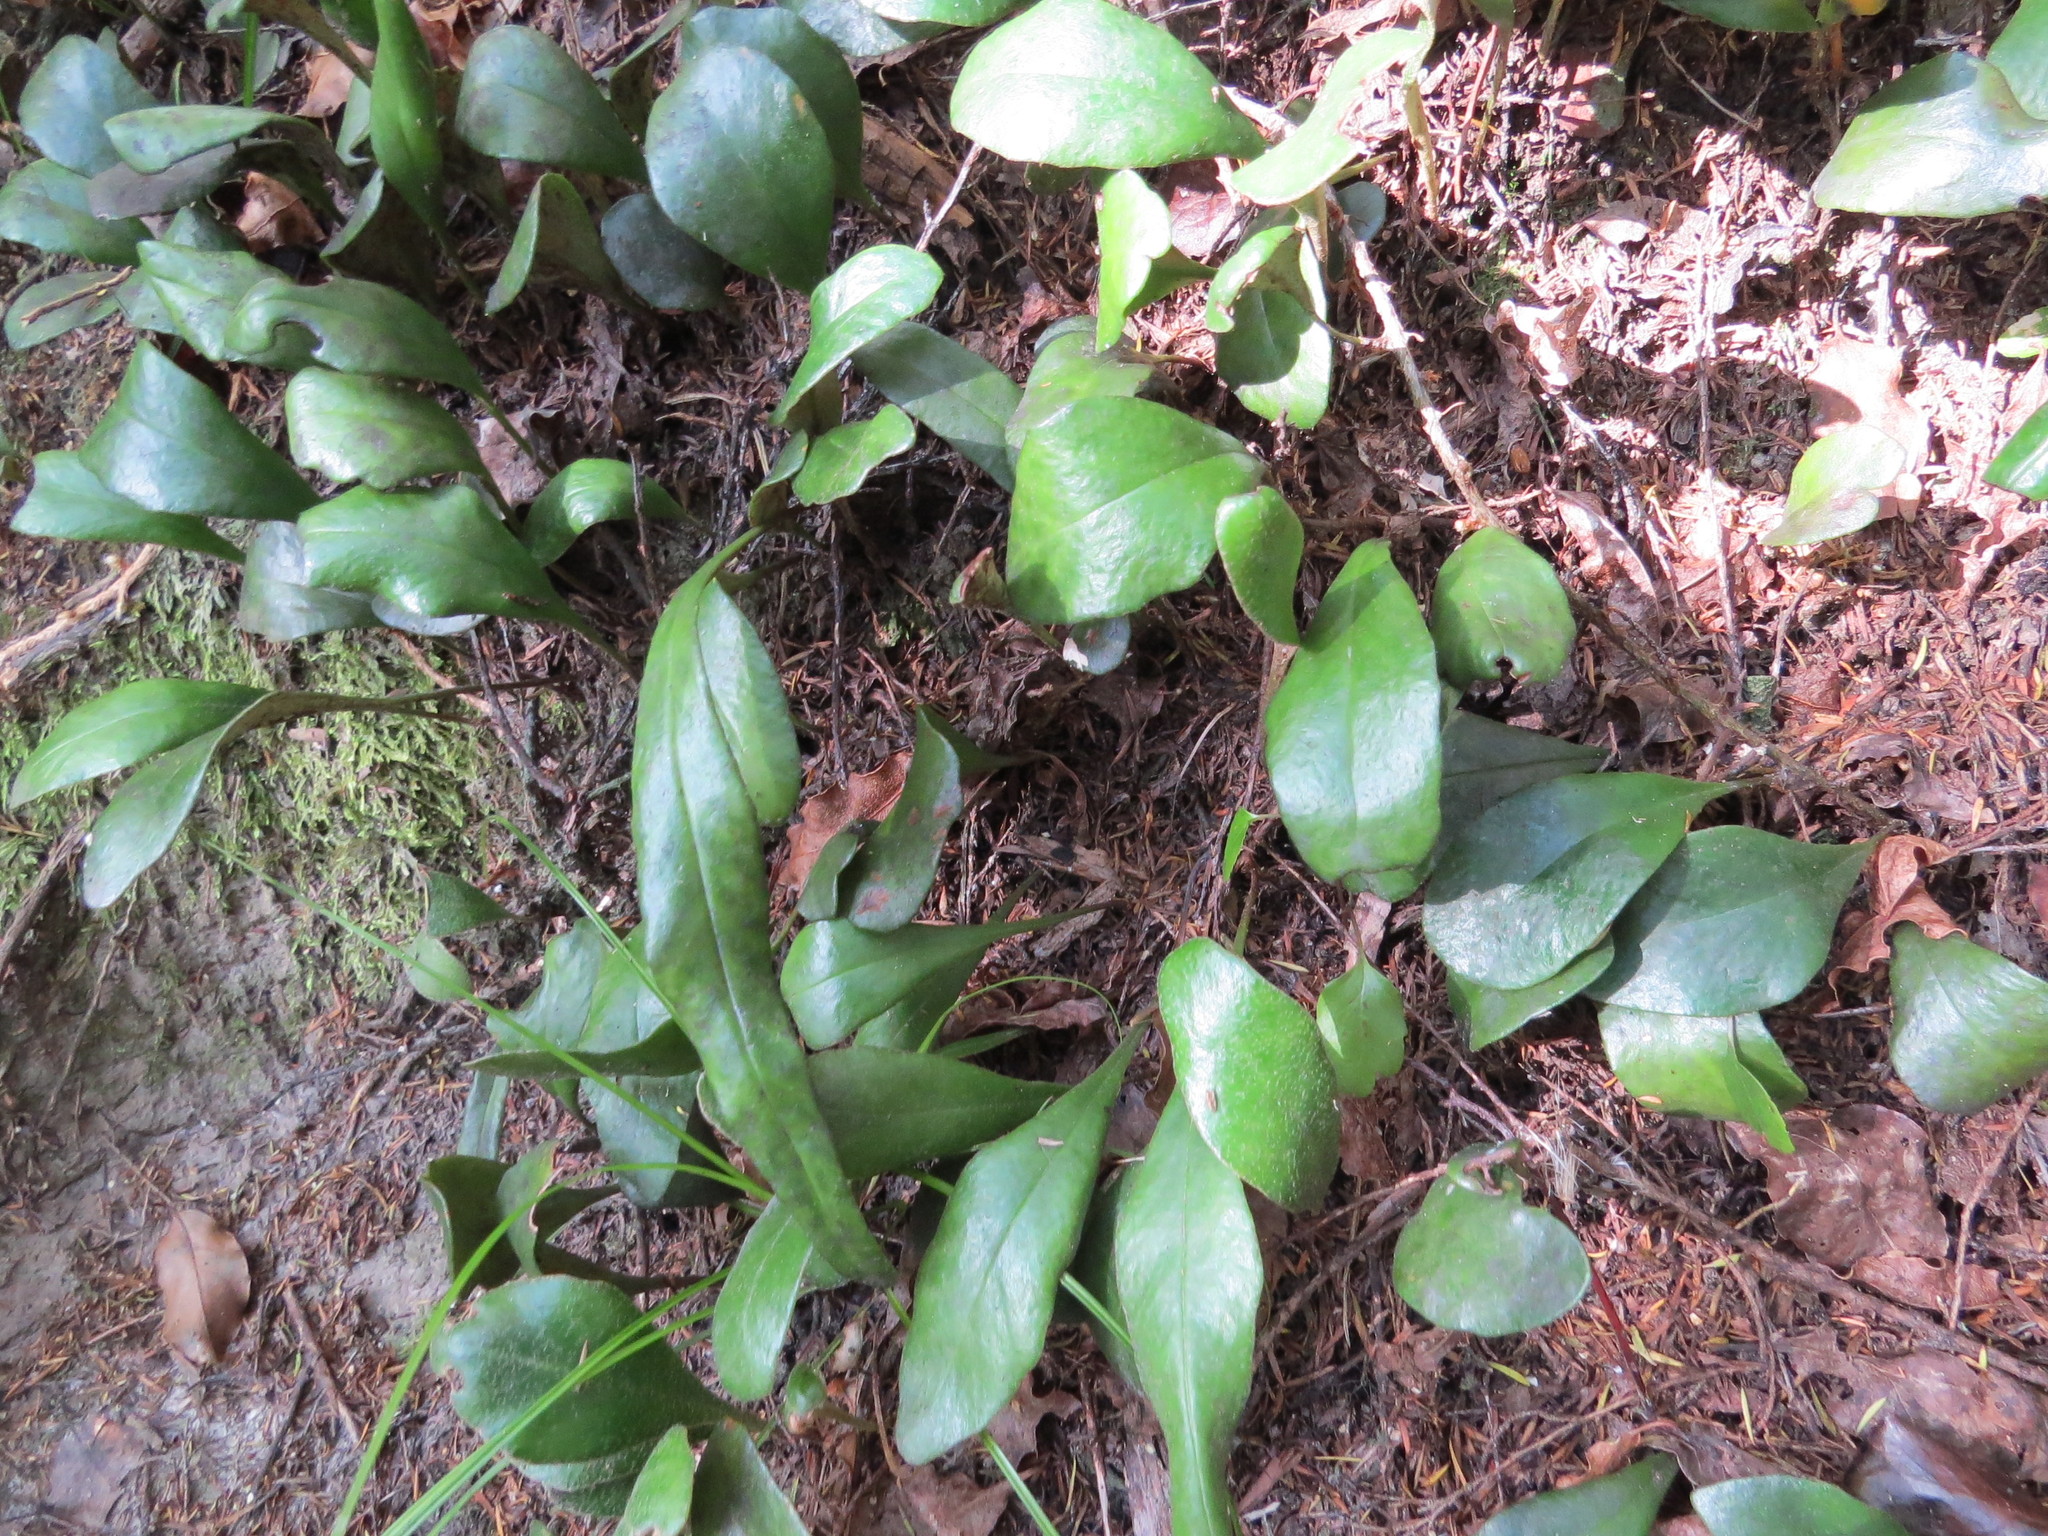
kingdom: Plantae
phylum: Tracheophyta
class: Polypodiopsida
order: Polypodiales
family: Polypodiaceae
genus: Pyrrosia
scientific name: Pyrrosia eleagnifolia
